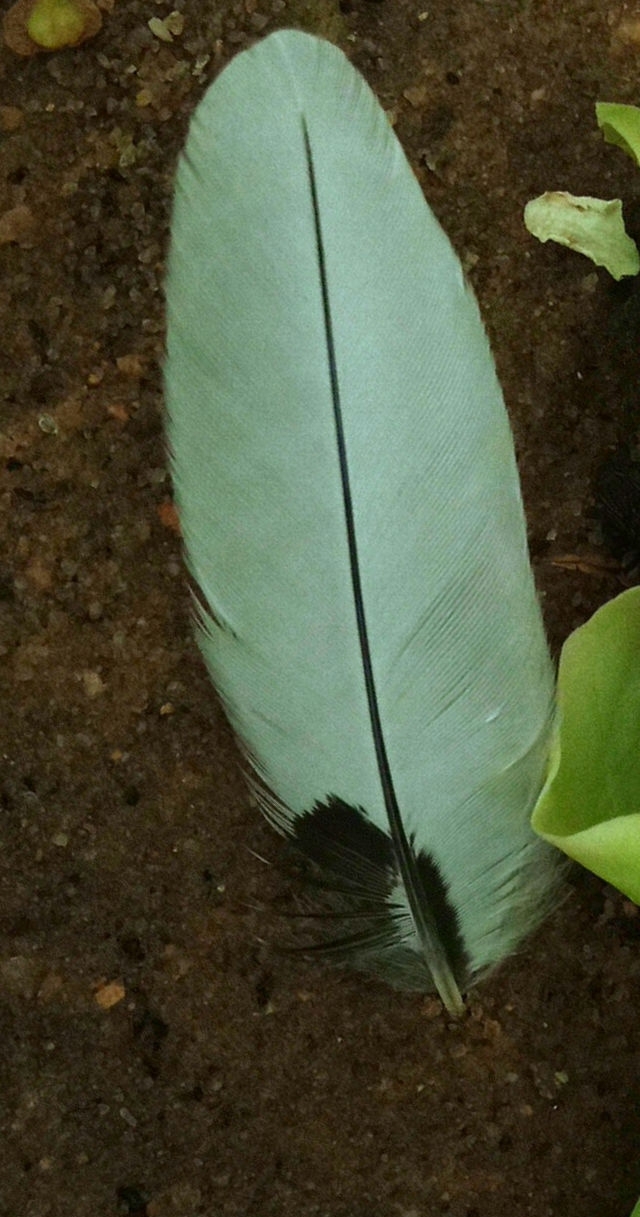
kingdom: Animalia
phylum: Chordata
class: Aves
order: Piciformes
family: Picidae
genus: Melanerpes
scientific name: Melanerpes erythrocephalus
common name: Red-headed woodpecker
